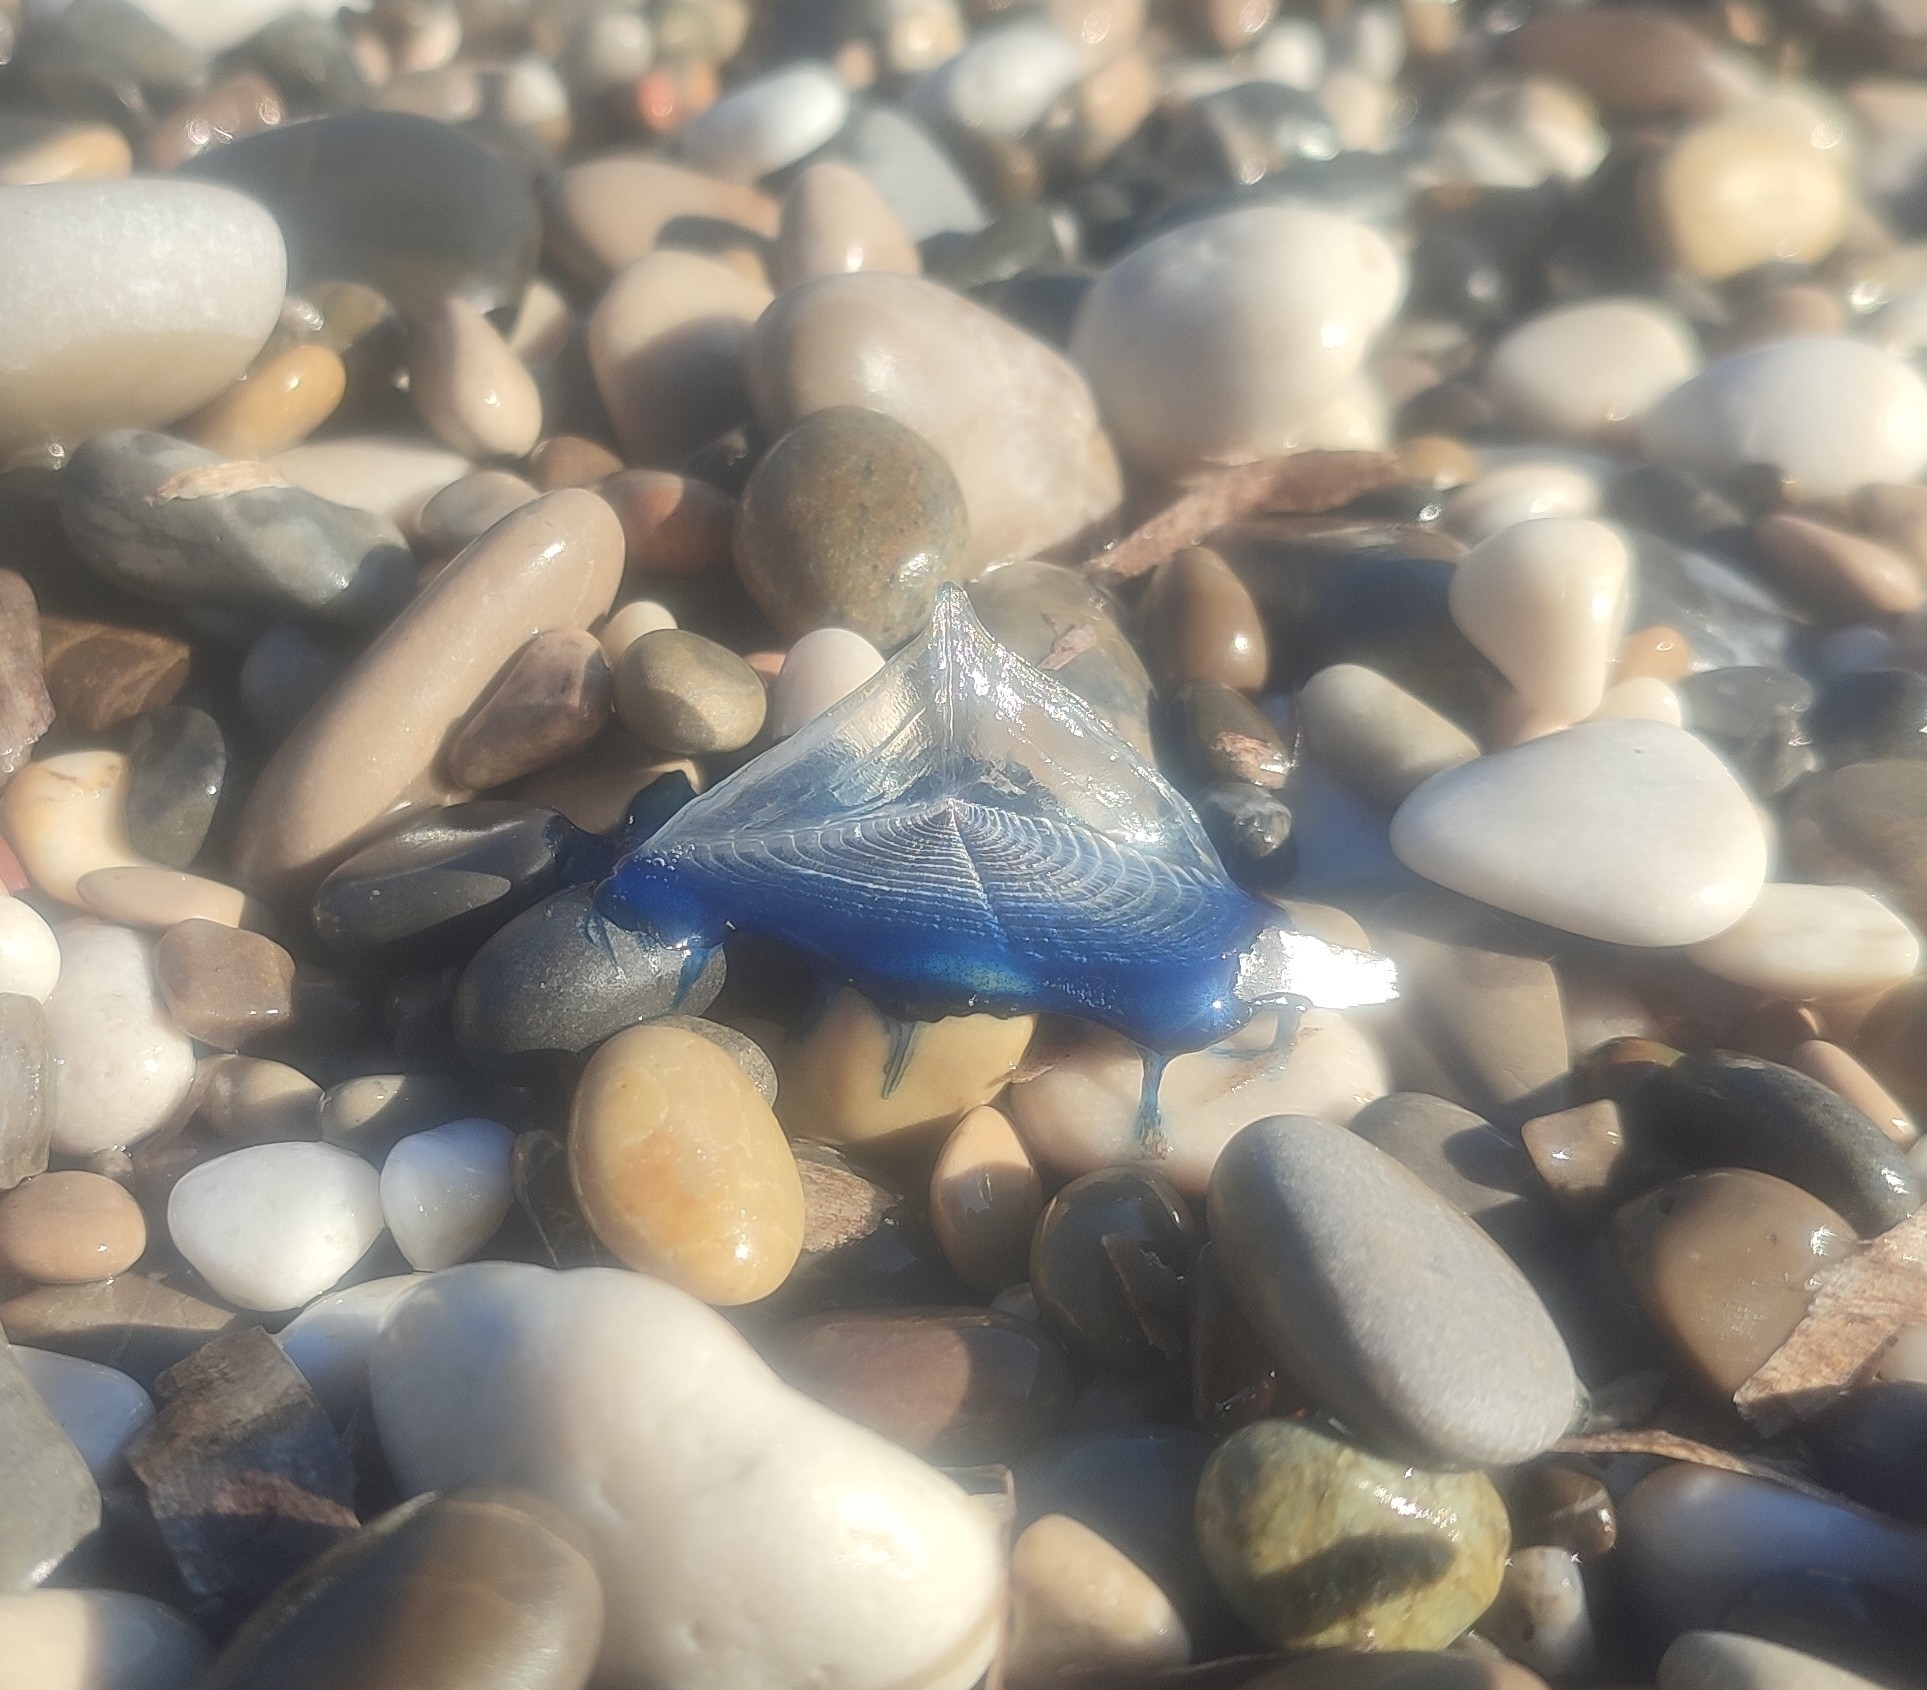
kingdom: Animalia
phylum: Cnidaria
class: Hydrozoa
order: Anthoathecata
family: Porpitidae
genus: Velella
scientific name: Velella velella
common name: By-the-wind-sailor
